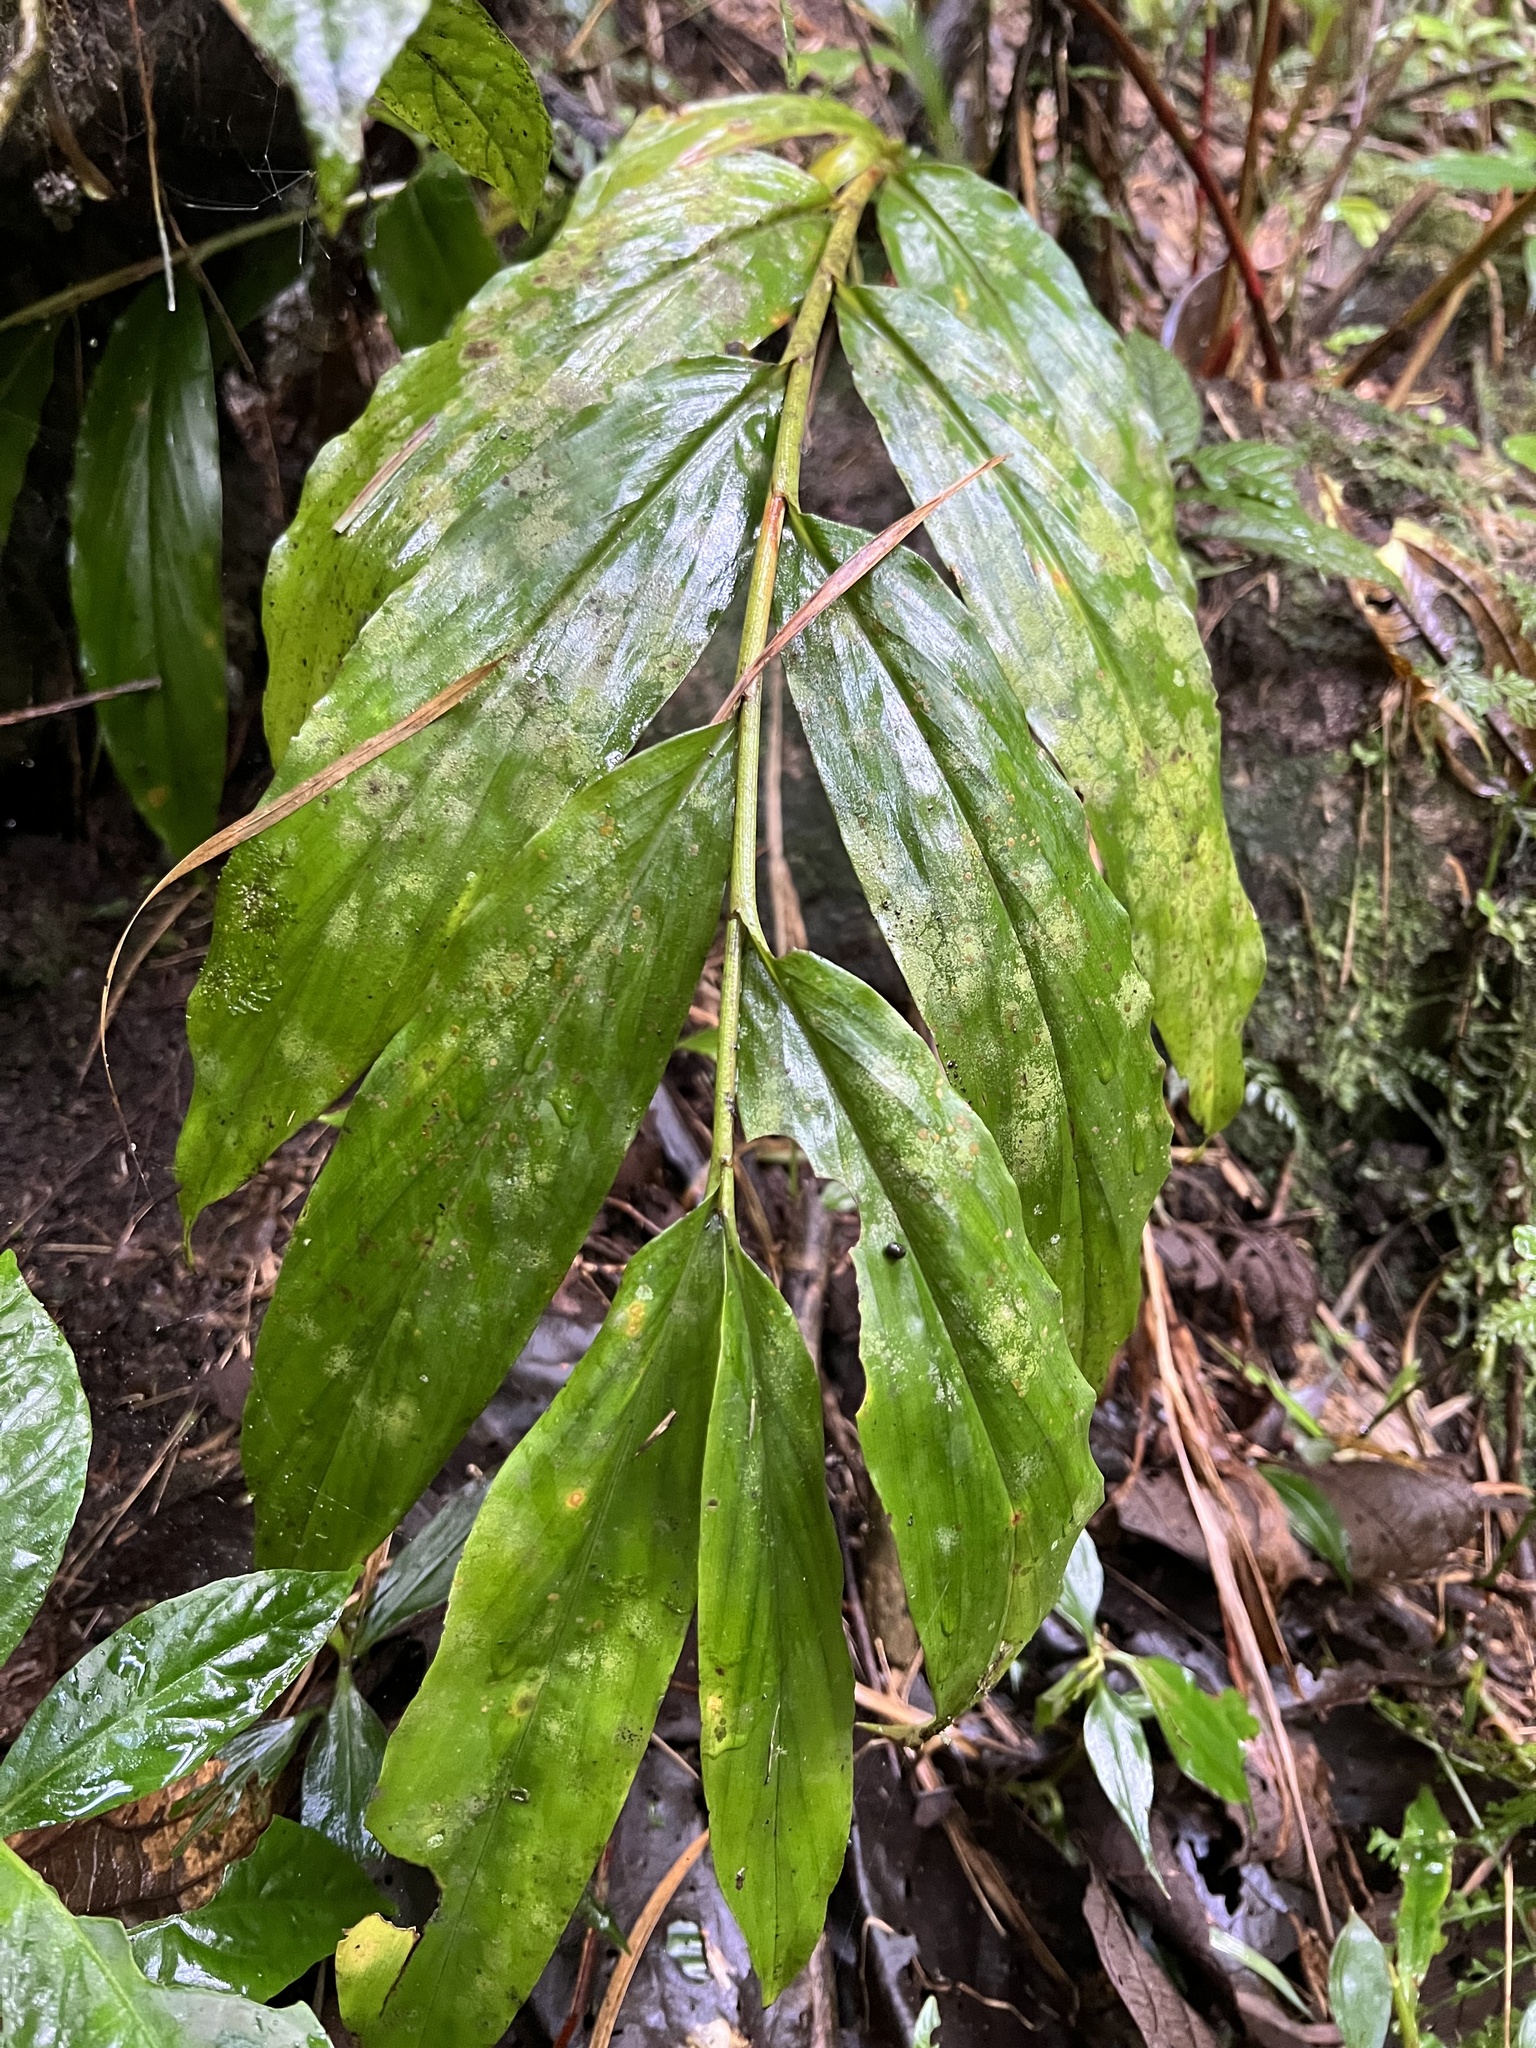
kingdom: Plantae
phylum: Tracheophyta
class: Liliopsida
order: Zingiberales
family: Zingiberaceae
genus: Renealmia
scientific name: Renealmia chalcochlora
